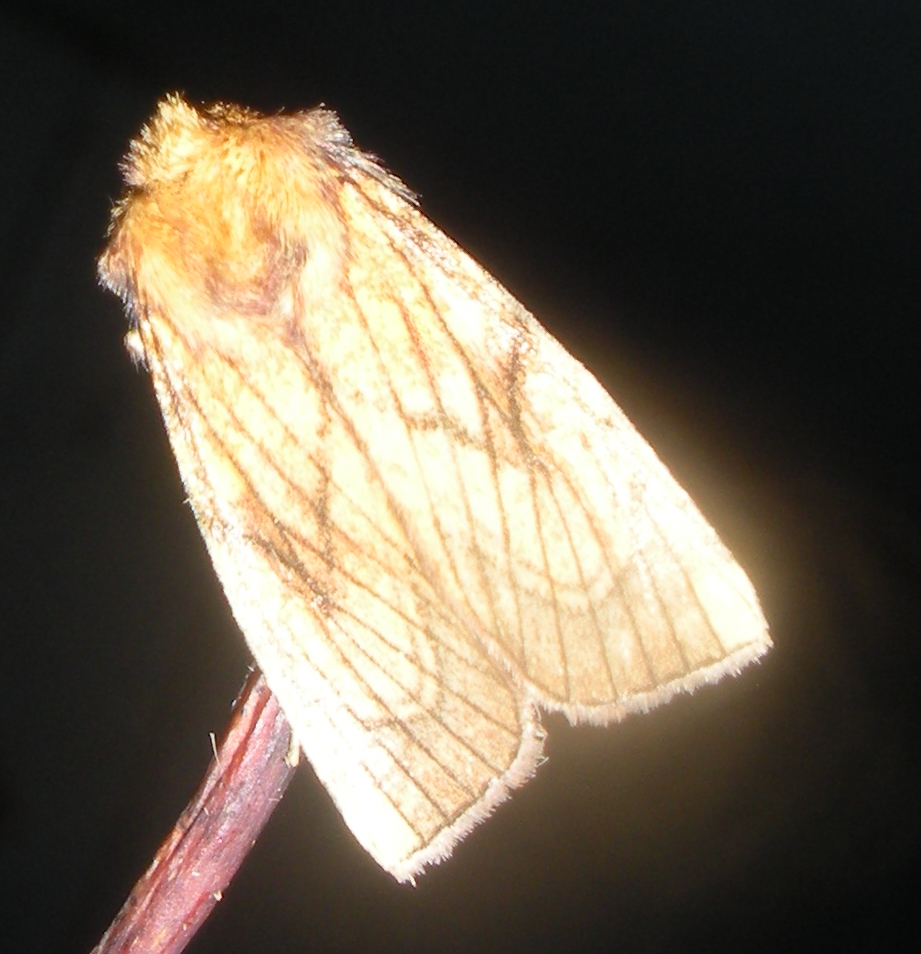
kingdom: Animalia
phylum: Arthropoda
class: Insecta
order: Lepidoptera
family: Noctuidae
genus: Papaipema
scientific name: Papaipema inquaesita
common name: Sensitive fern borer moth
